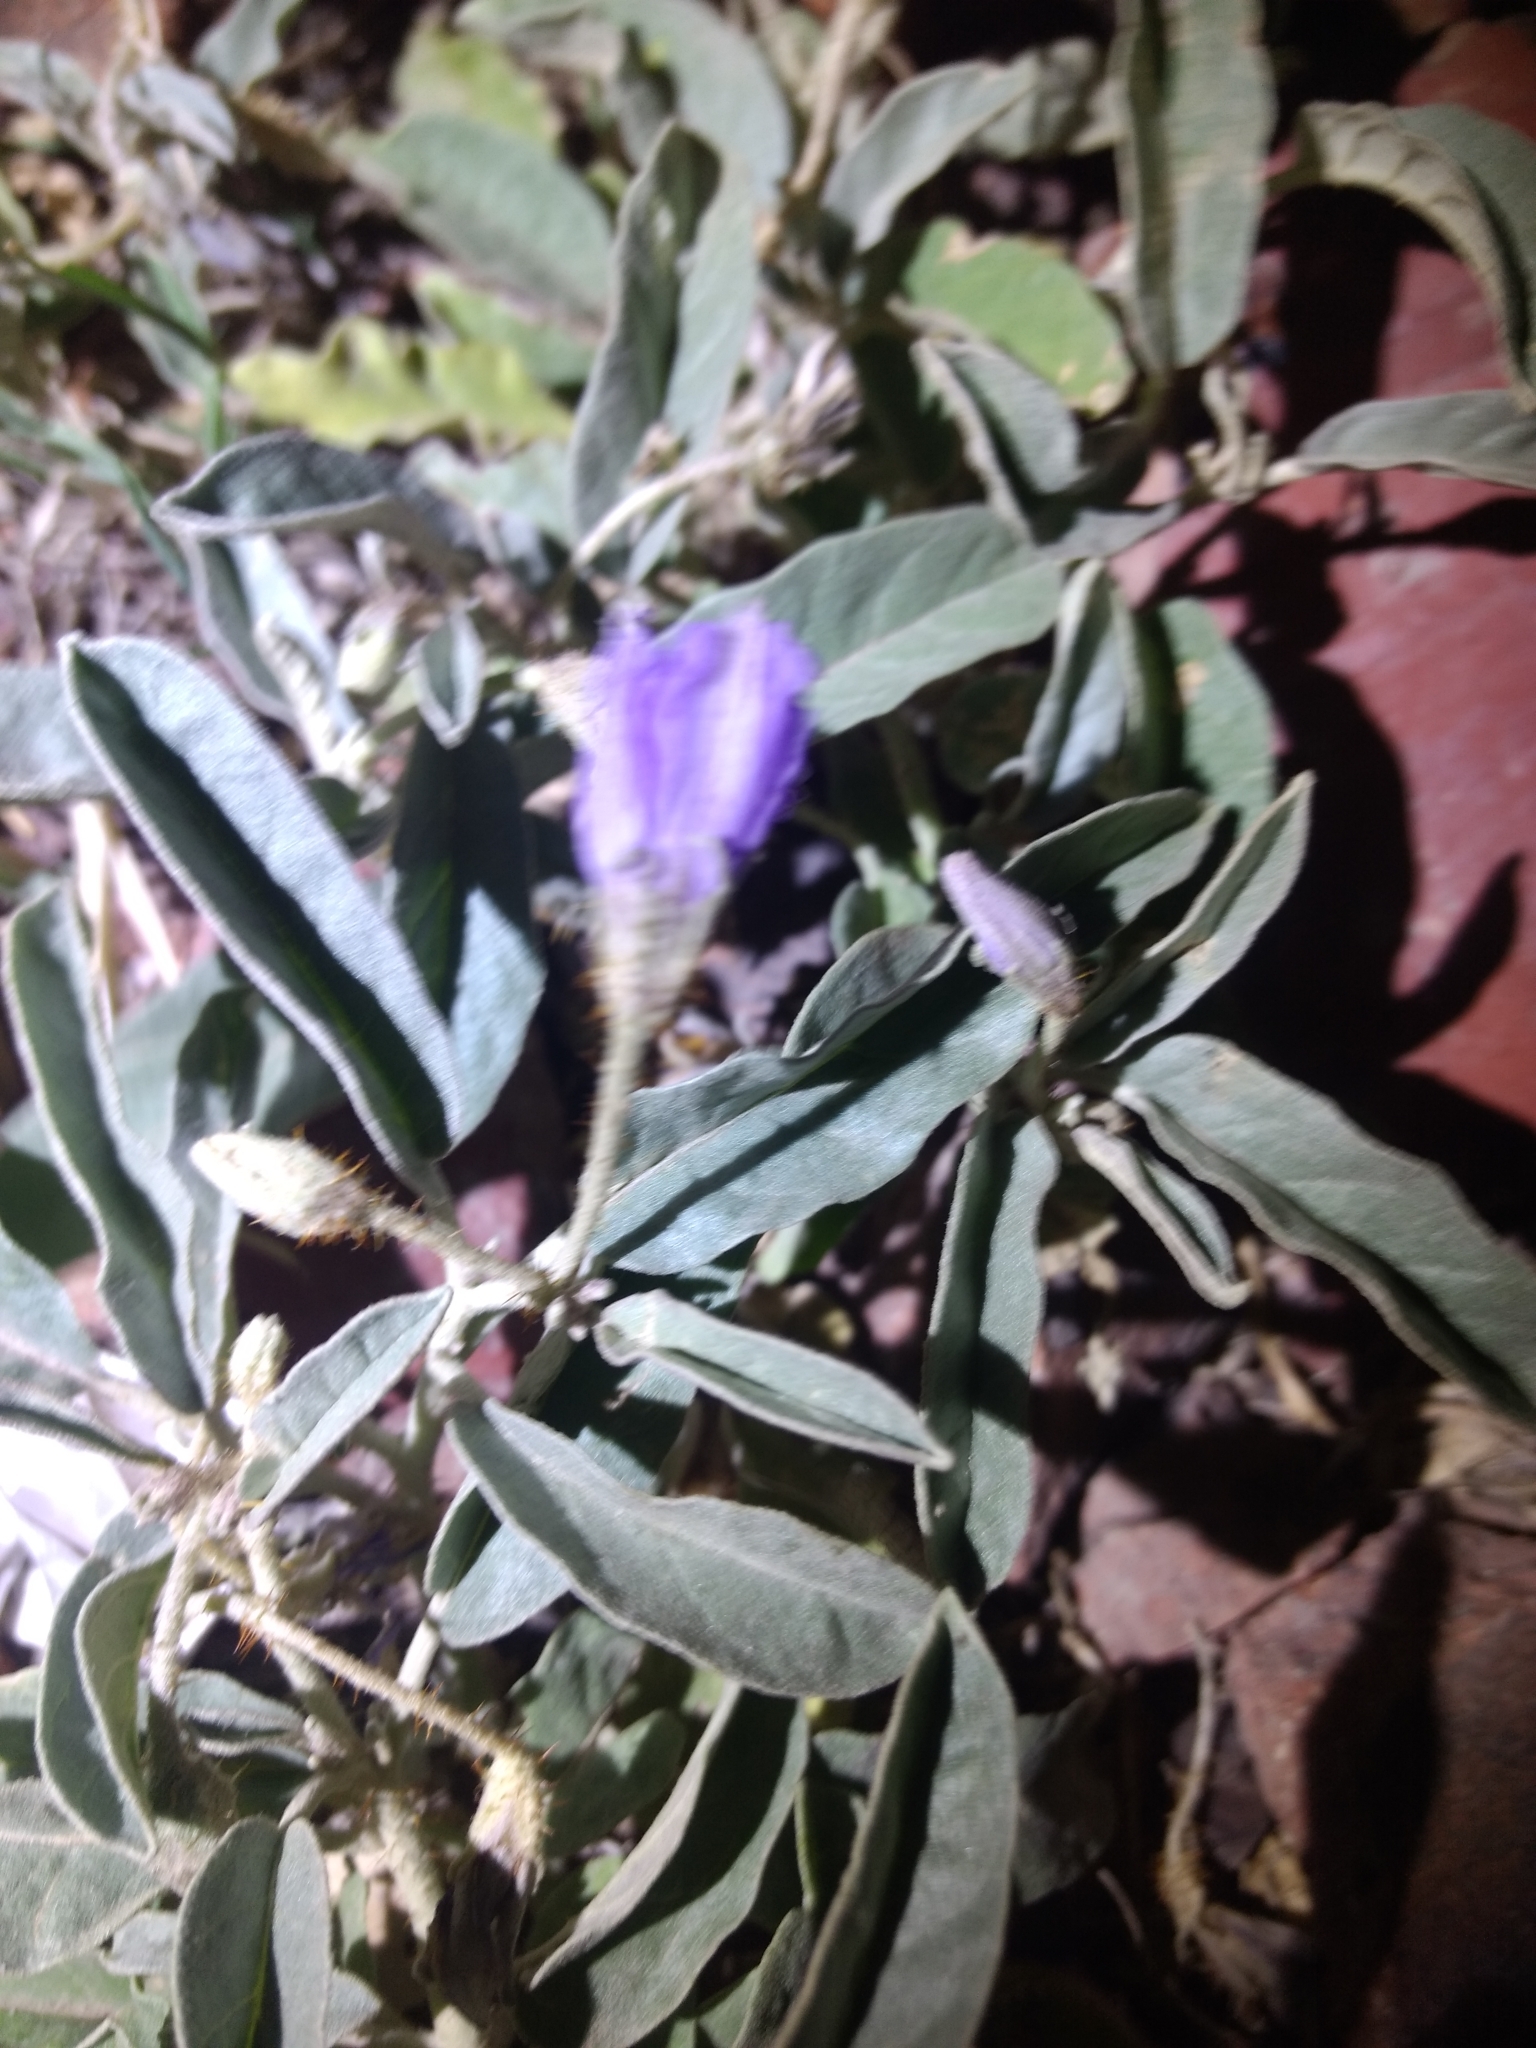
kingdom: Plantae
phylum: Tracheophyta
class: Magnoliopsida
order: Solanales
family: Solanaceae
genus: Solanum
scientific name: Solanum elaeagnifolium
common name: Silverleaf nightshade
